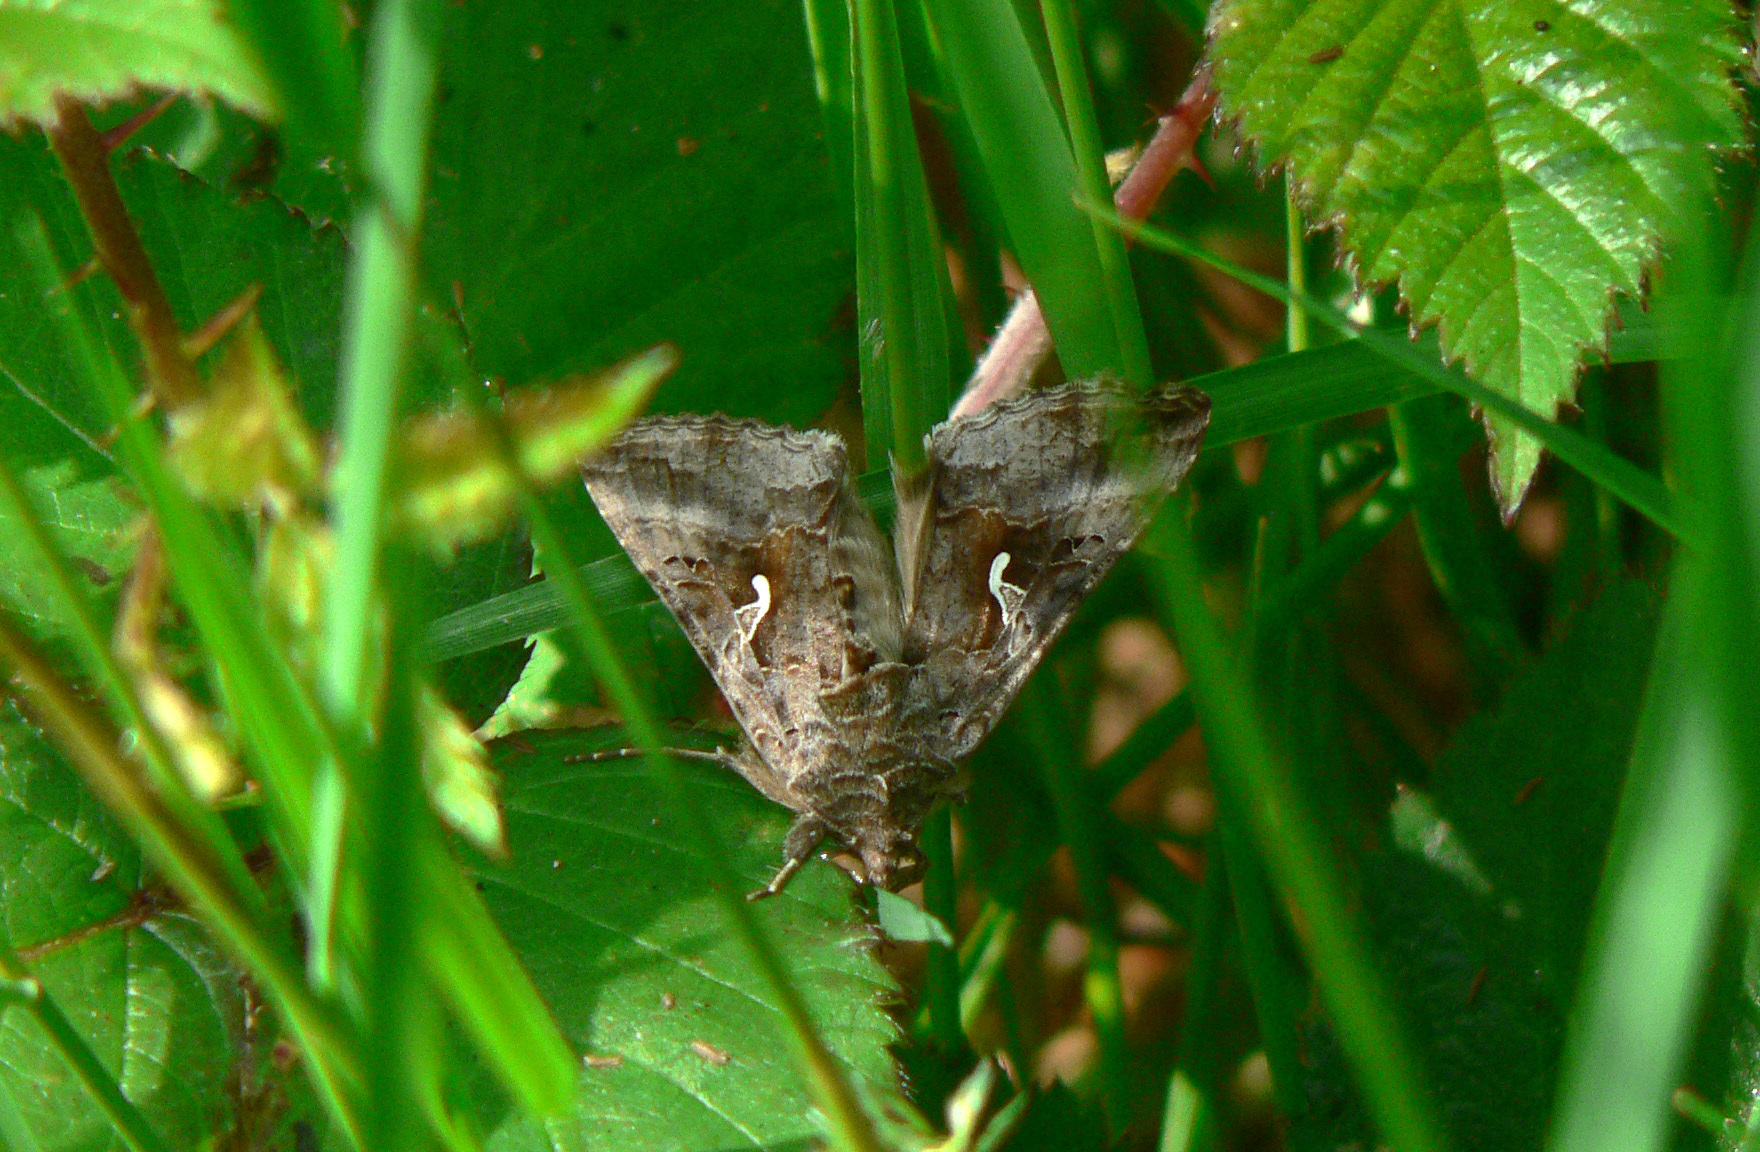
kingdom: Animalia
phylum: Arthropoda
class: Insecta
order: Lepidoptera
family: Noctuidae
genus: Autographa
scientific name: Autographa gamma
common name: Silver y
